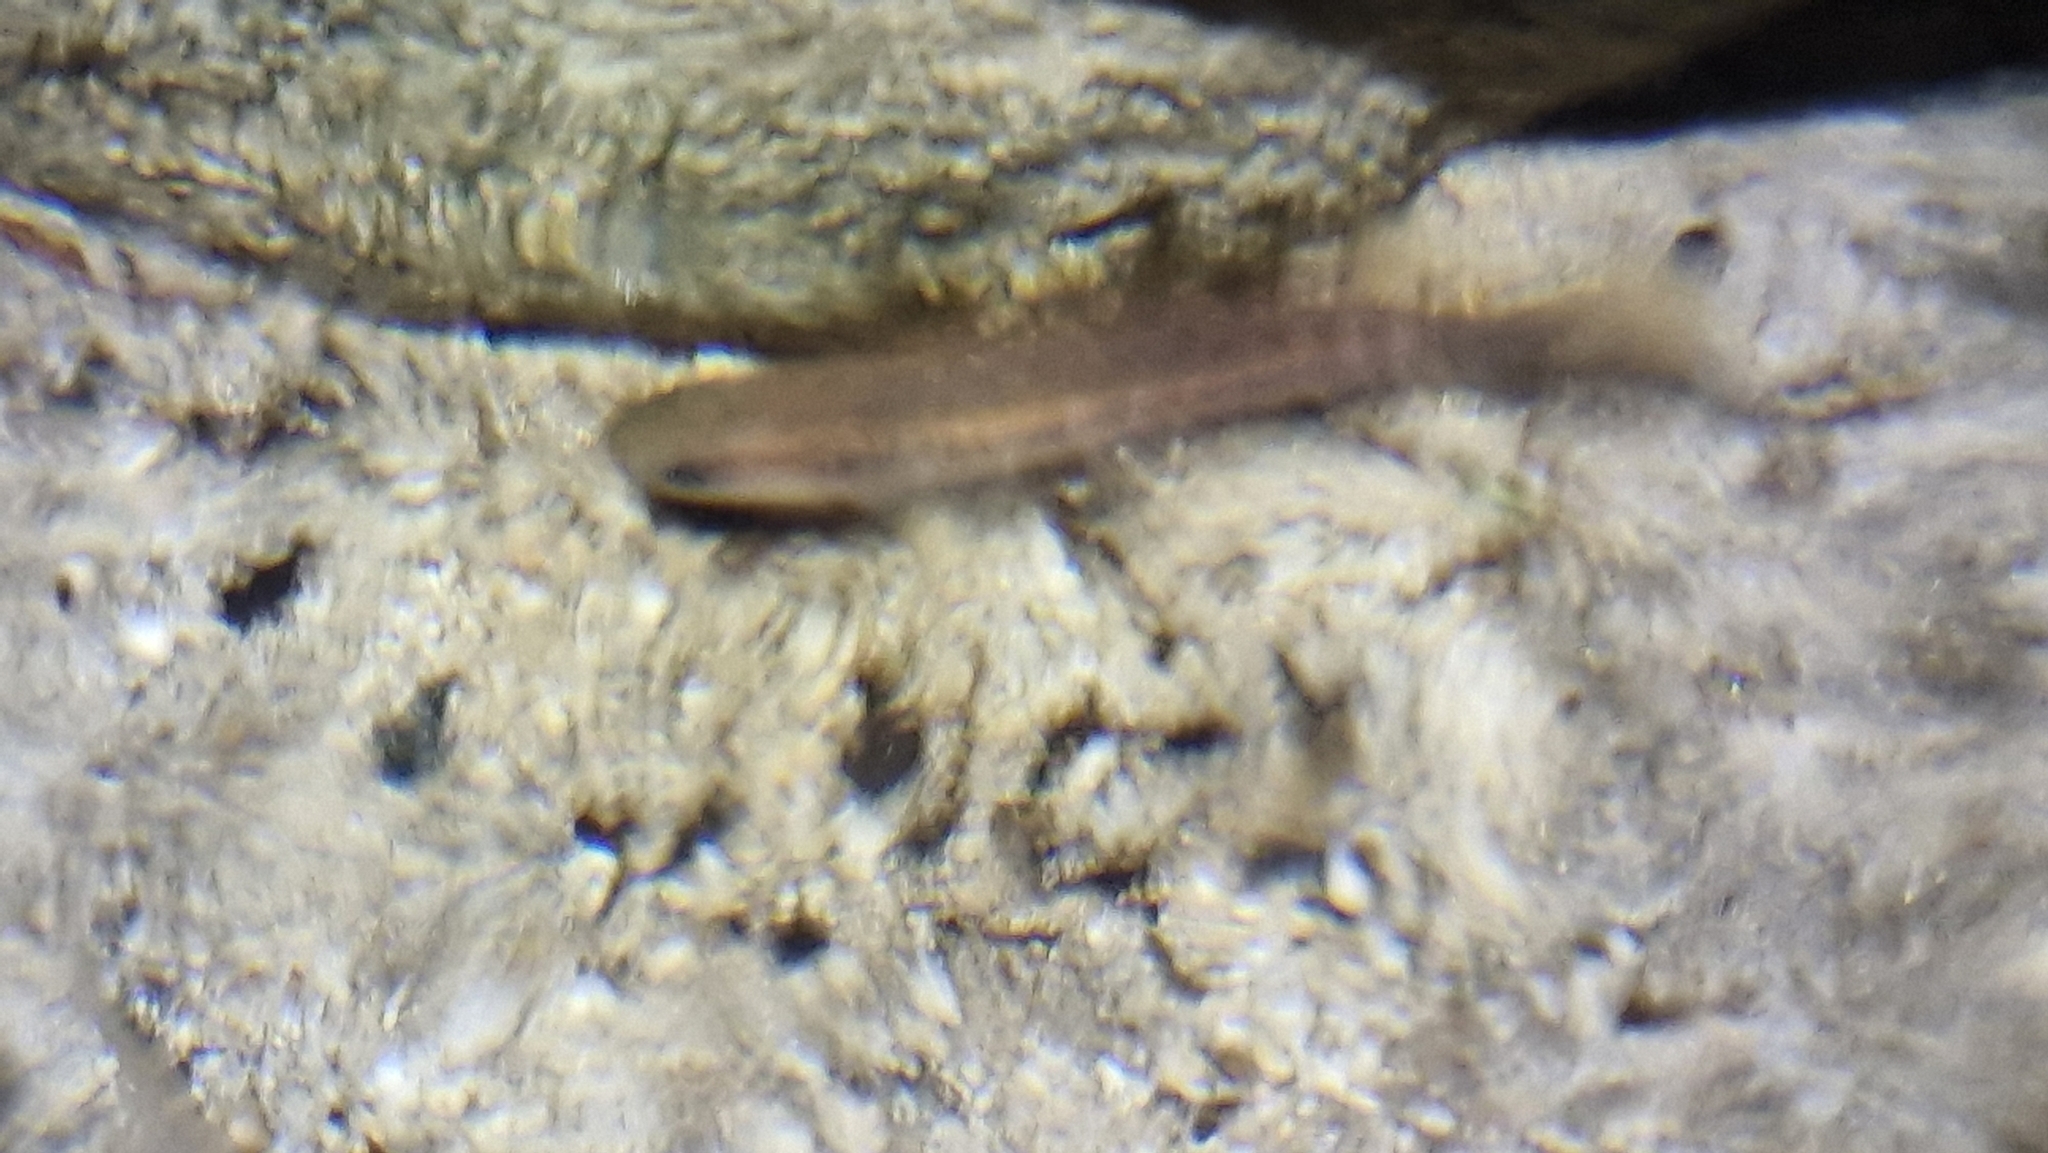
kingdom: Animalia
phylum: Chordata
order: Osmeriformes
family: Galaxiidae
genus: Galaxias
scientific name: Galaxias fasciatus
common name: Banded kokopu
